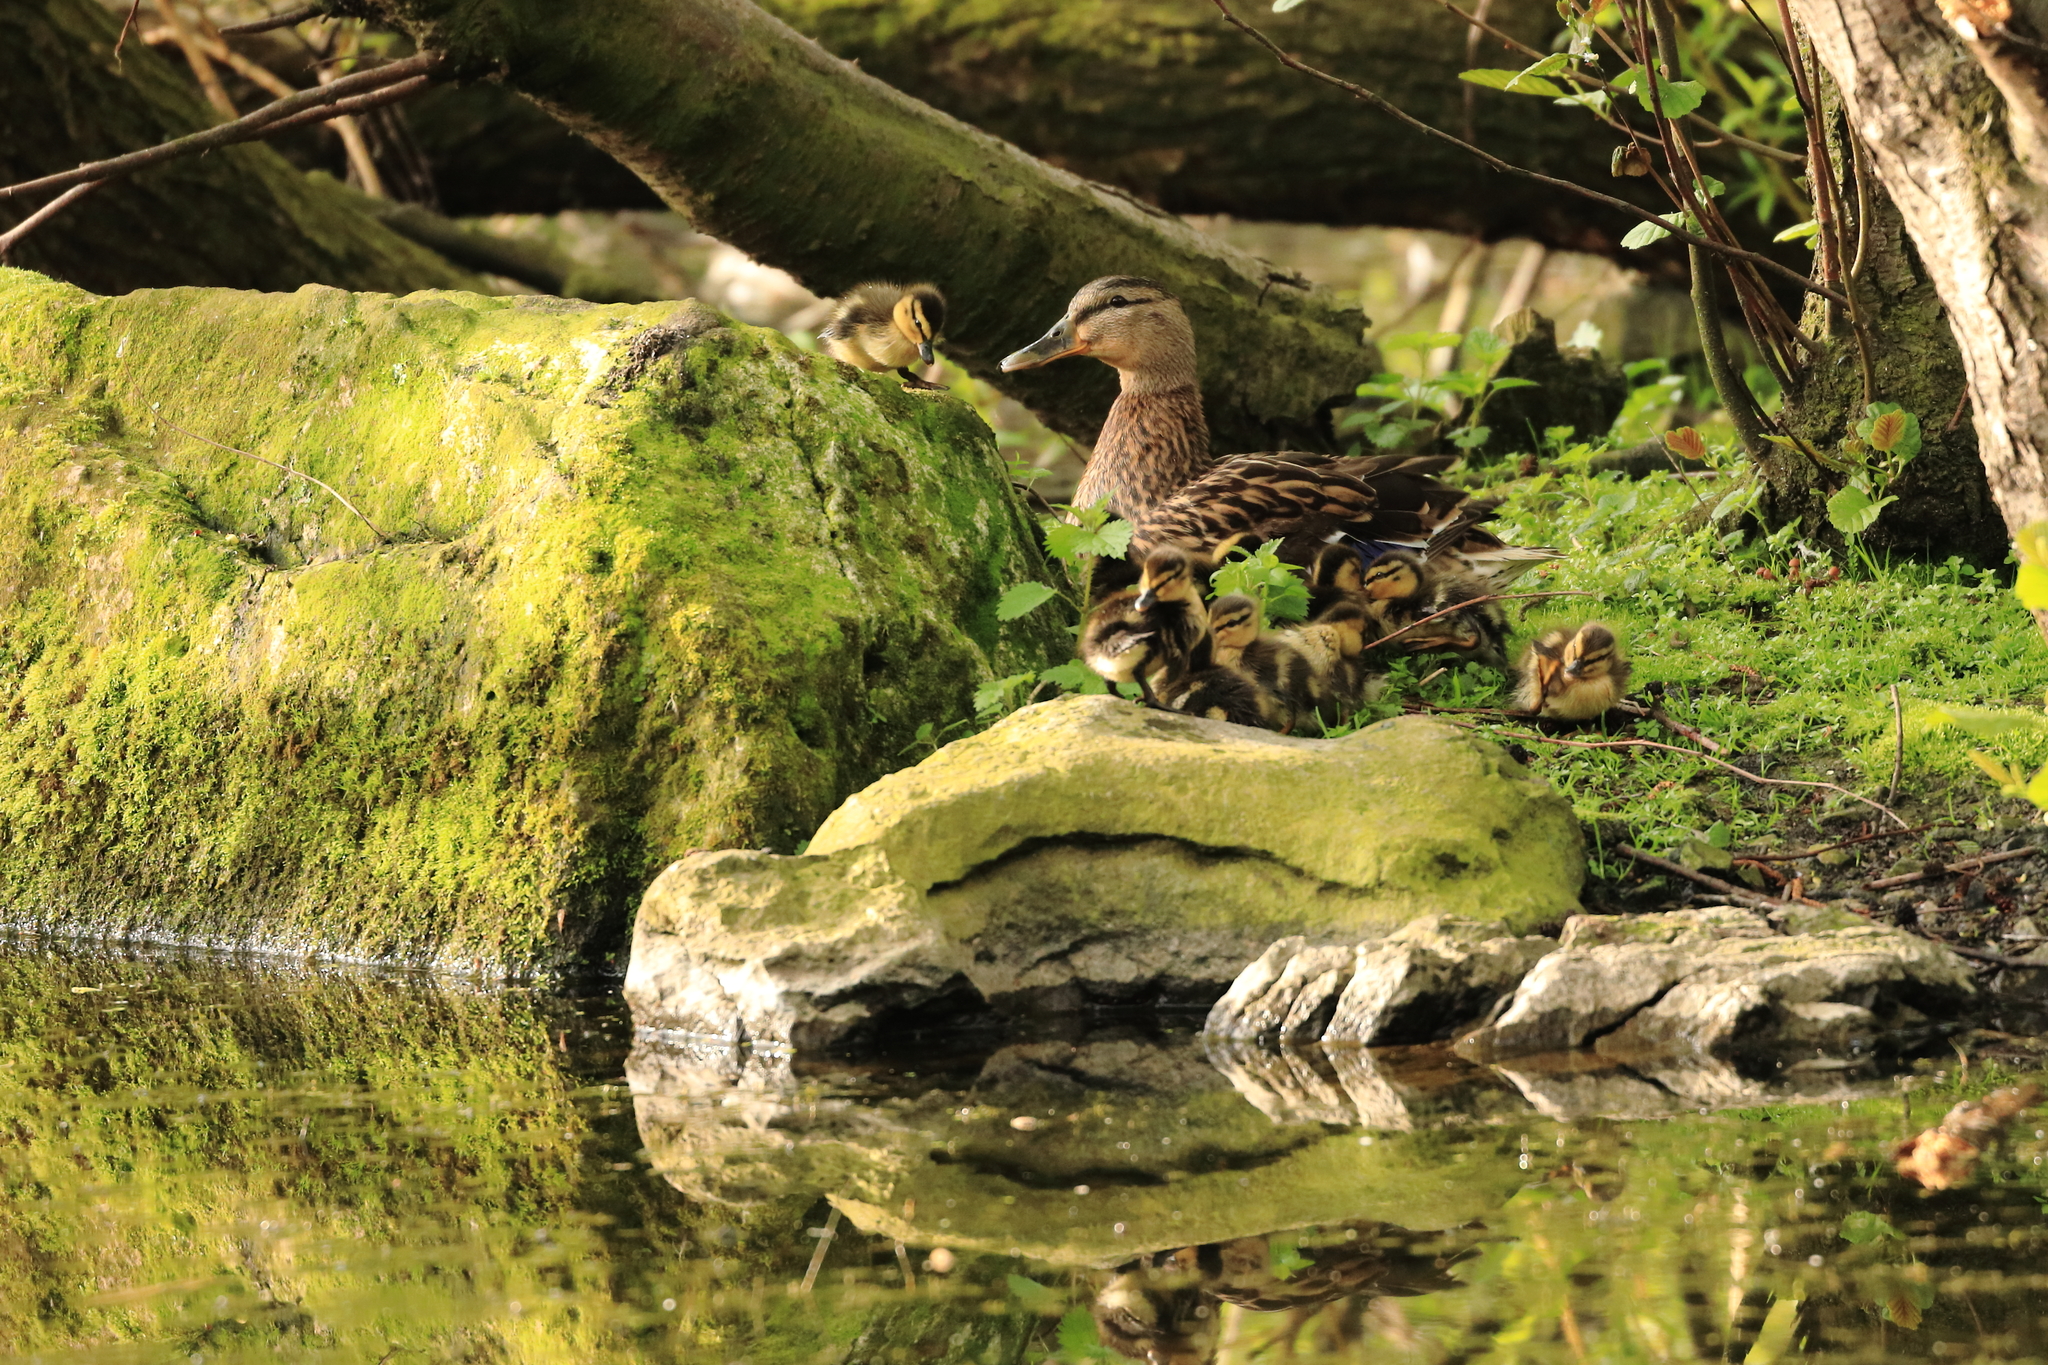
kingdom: Animalia
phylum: Chordata
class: Aves
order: Anseriformes
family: Anatidae
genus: Anas
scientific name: Anas platyrhynchos
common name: Mallard
